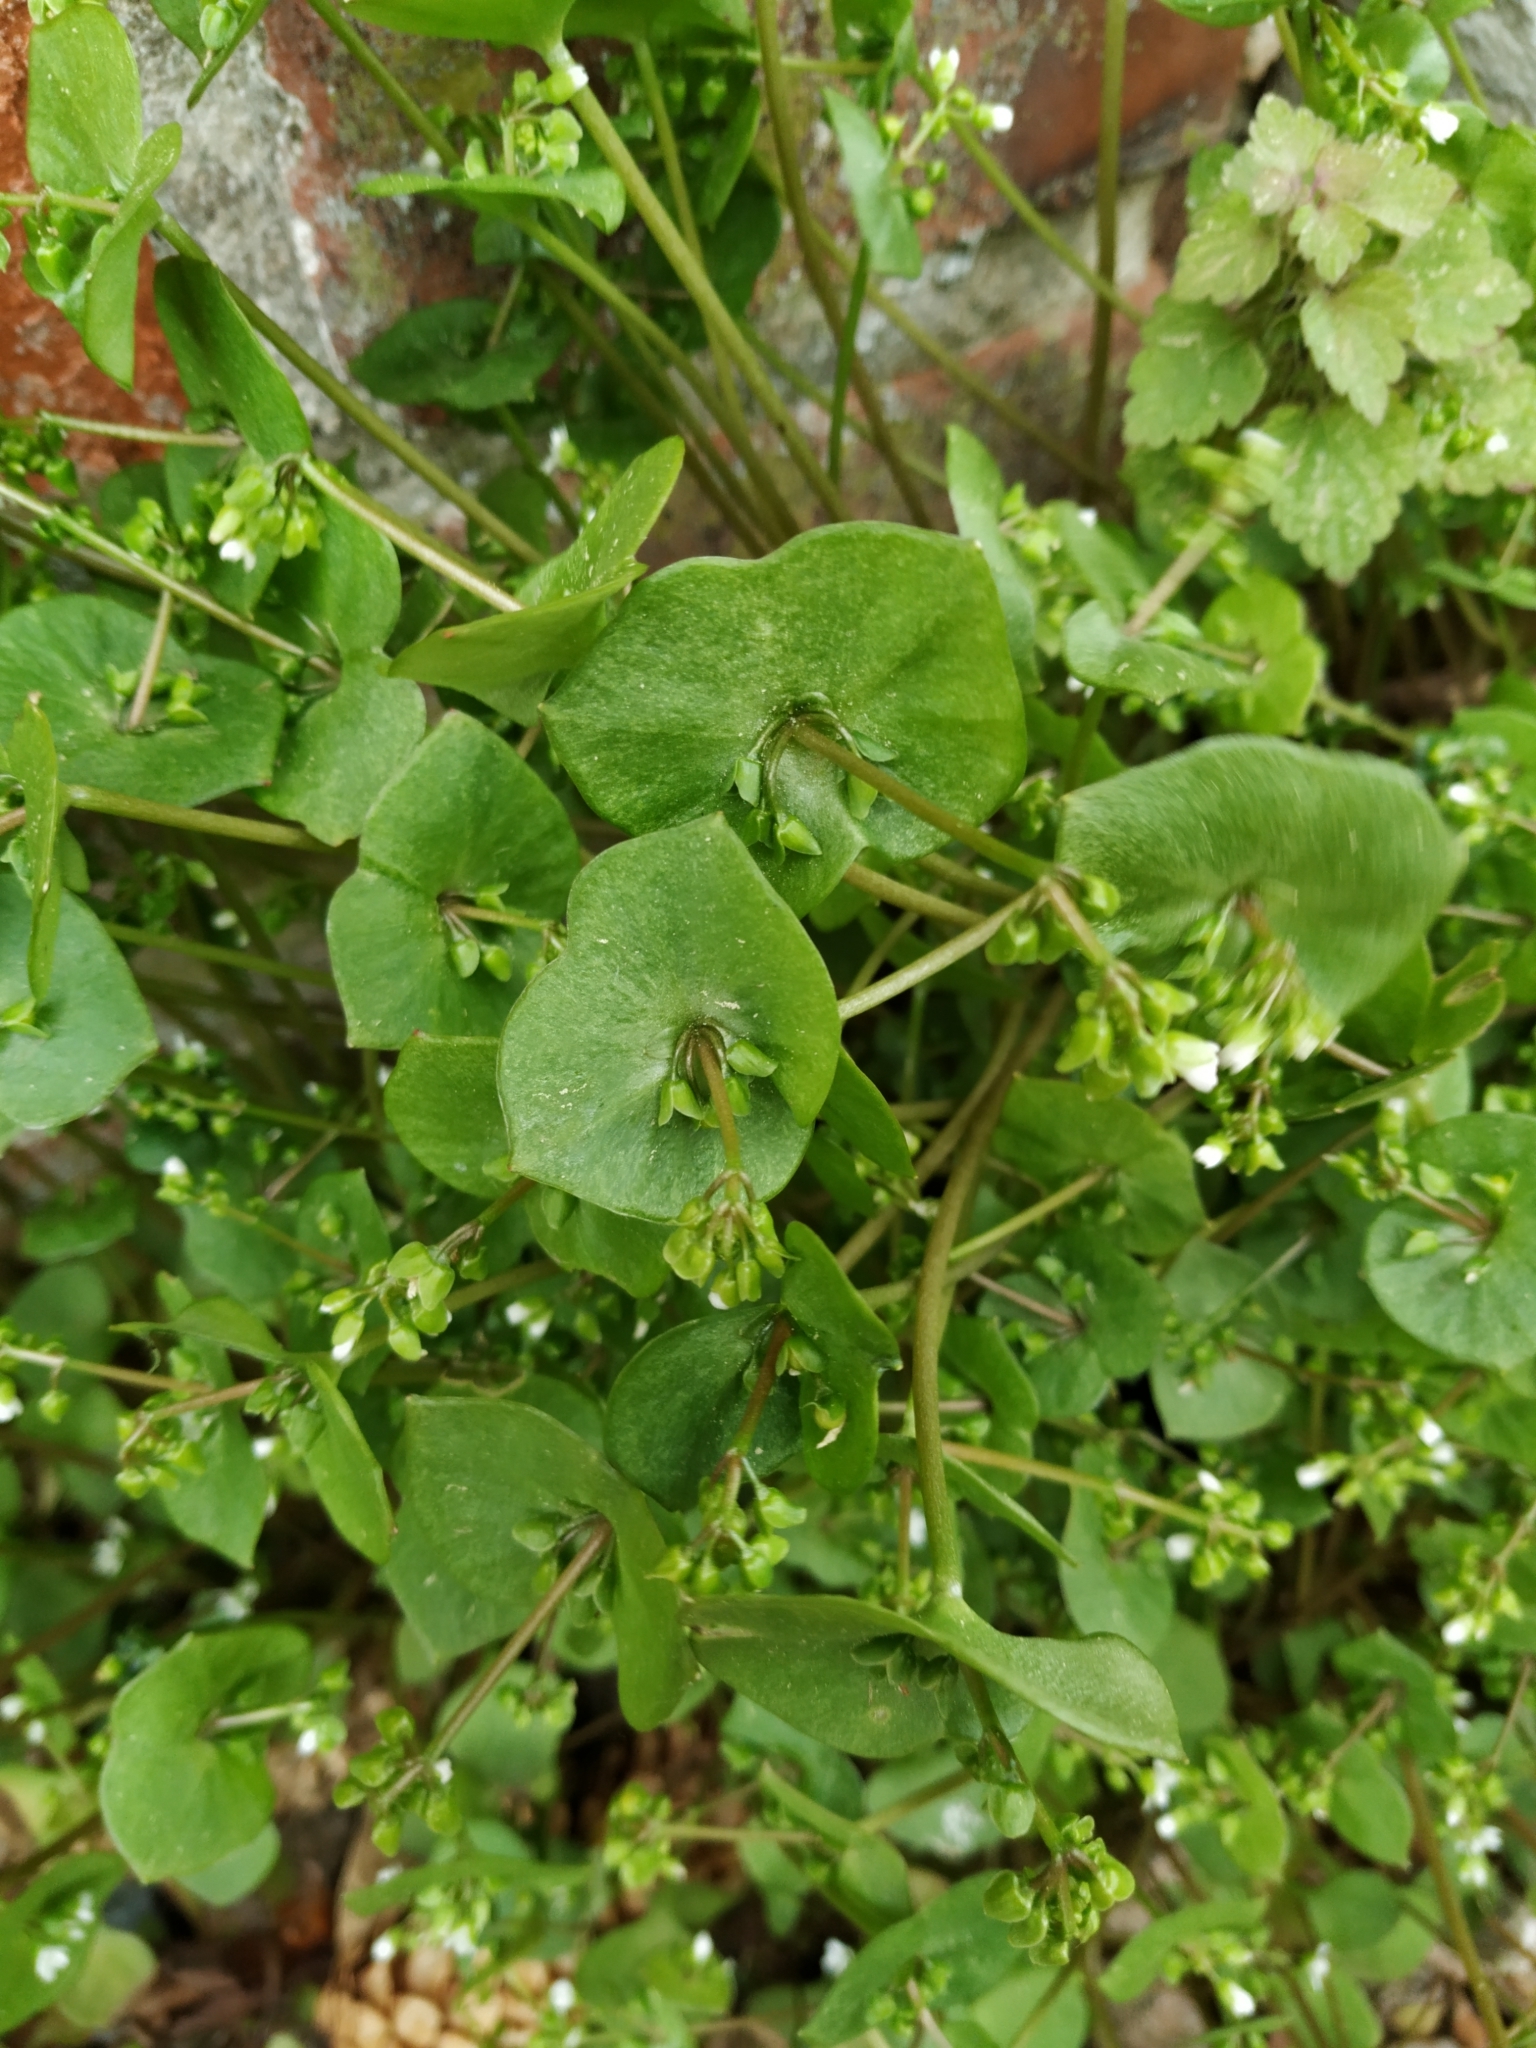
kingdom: Plantae
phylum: Tracheophyta
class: Magnoliopsida
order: Caryophyllales
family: Montiaceae
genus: Claytonia
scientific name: Claytonia perfoliata
